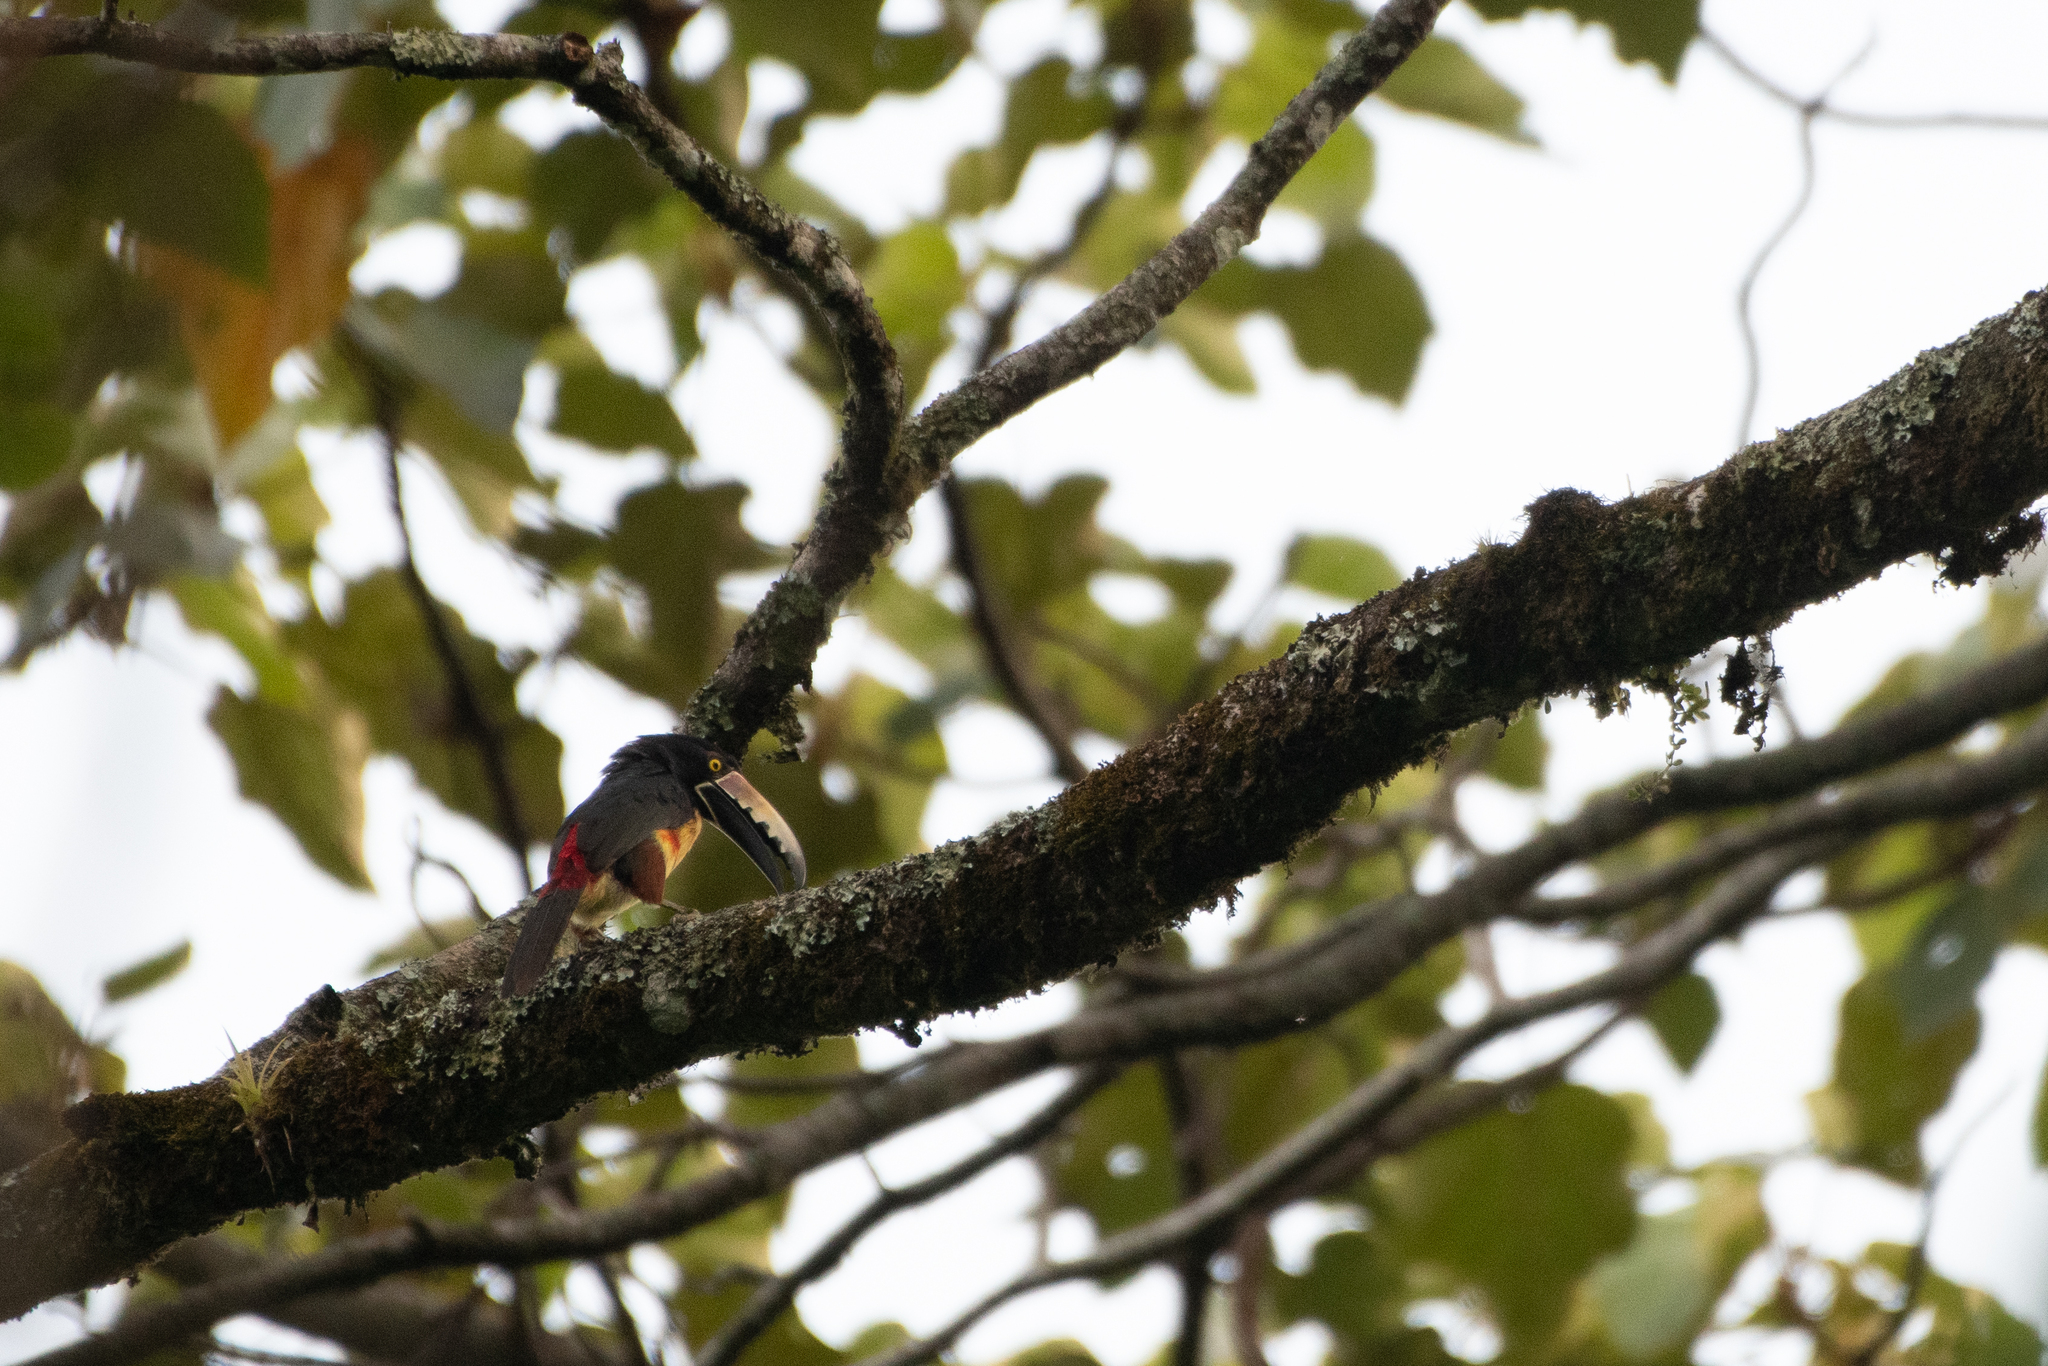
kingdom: Animalia
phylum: Chordata
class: Aves
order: Piciformes
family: Ramphastidae
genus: Pteroglossus
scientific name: Pteroglossus torquatus
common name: Collared aracari
